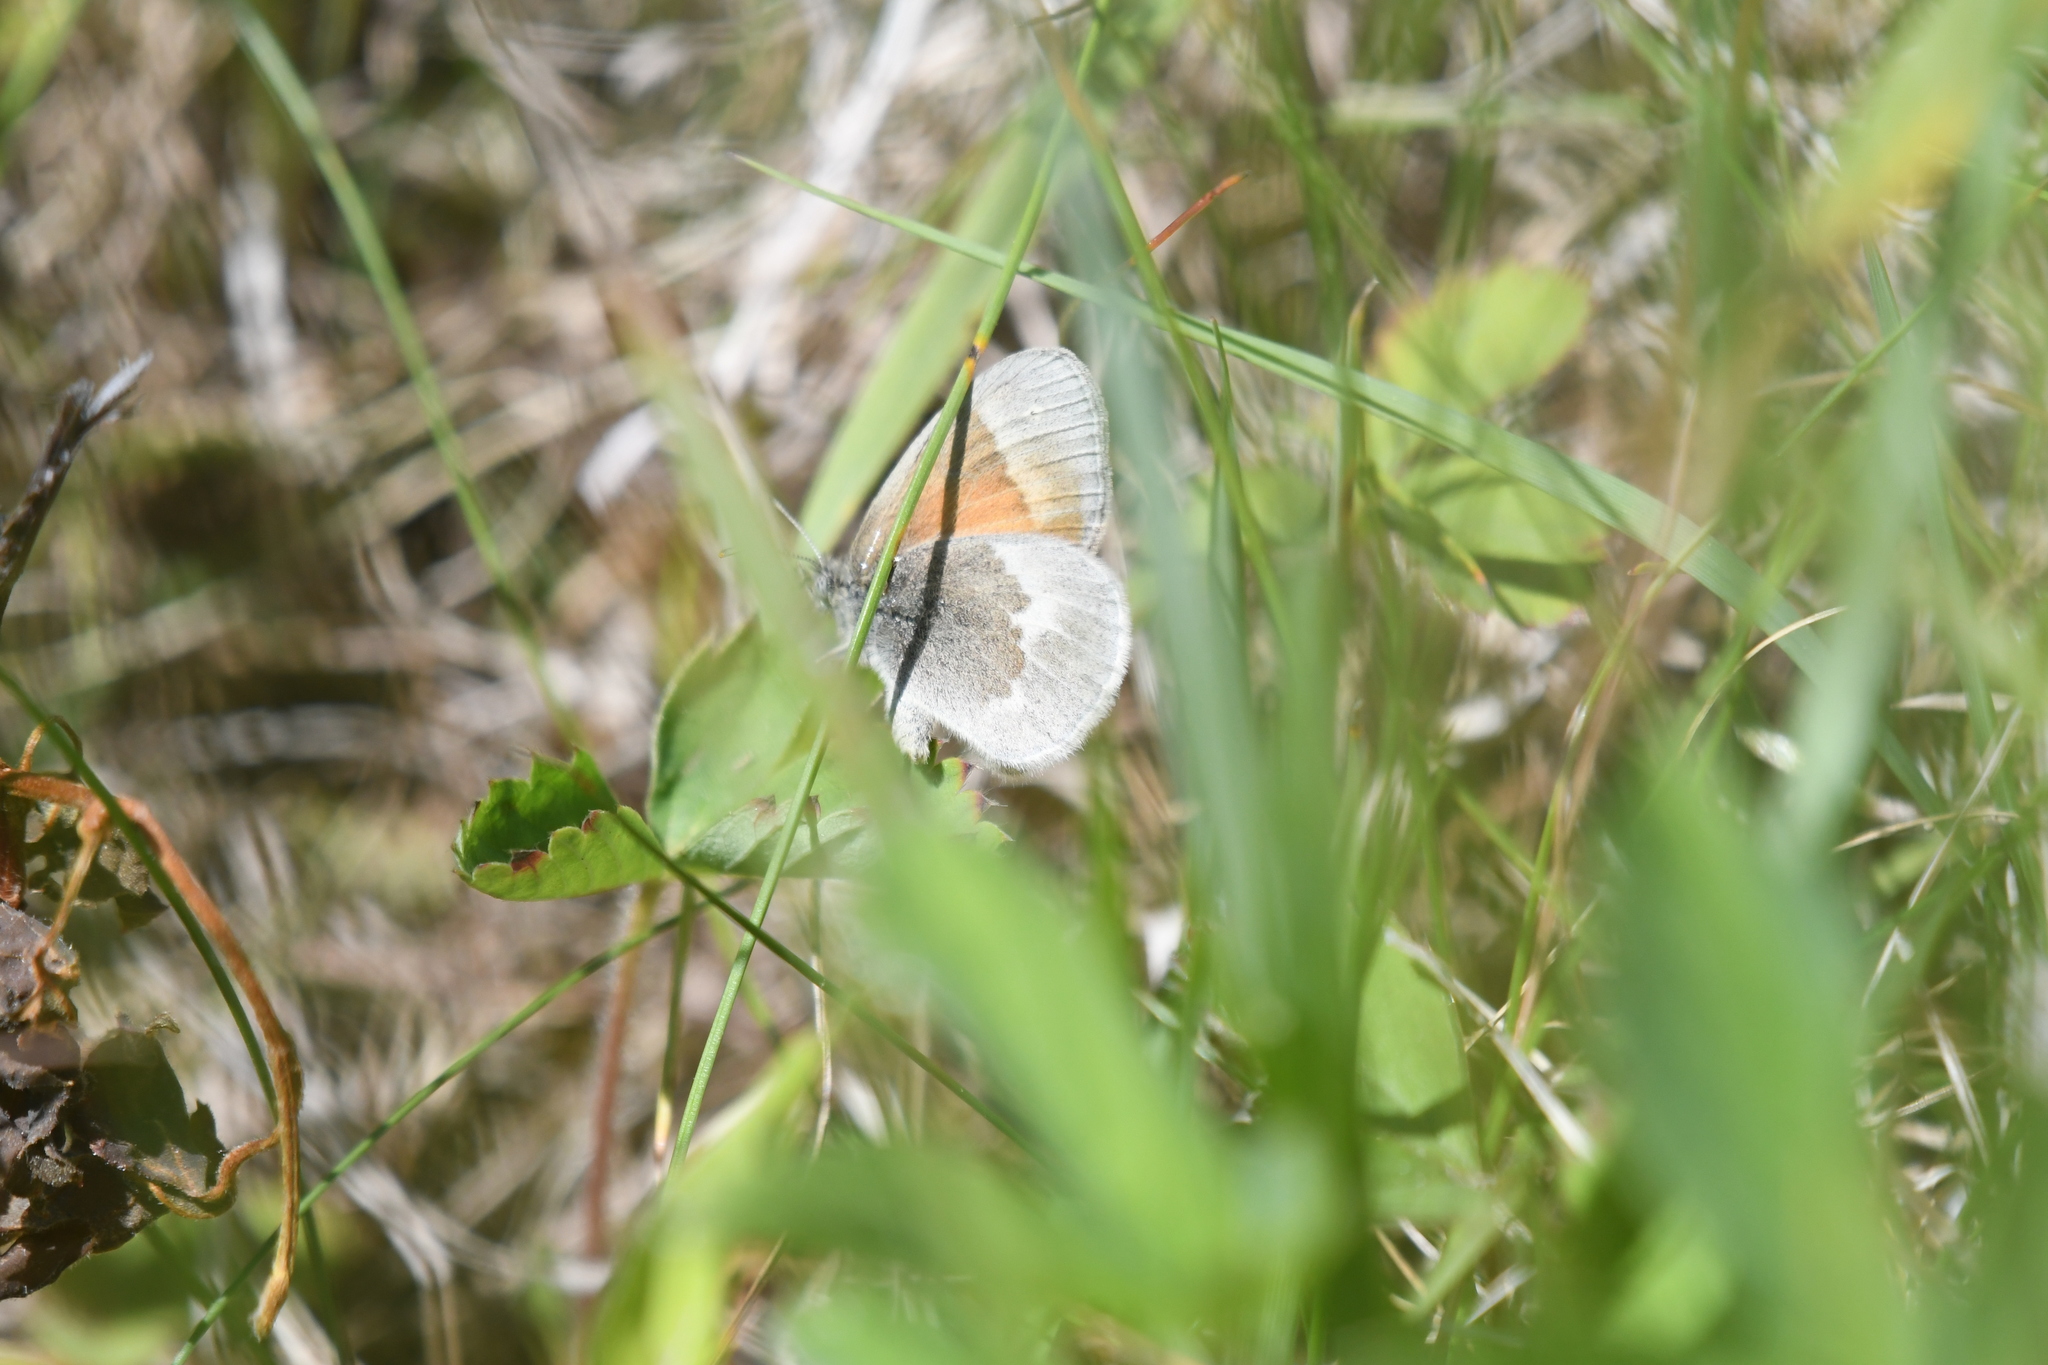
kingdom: Animalia
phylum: Arthropoda
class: Insecta
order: Lepidoptera
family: Nymphalidae
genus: Coenonympha
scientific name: Coenonympha california
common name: Common ringlet
